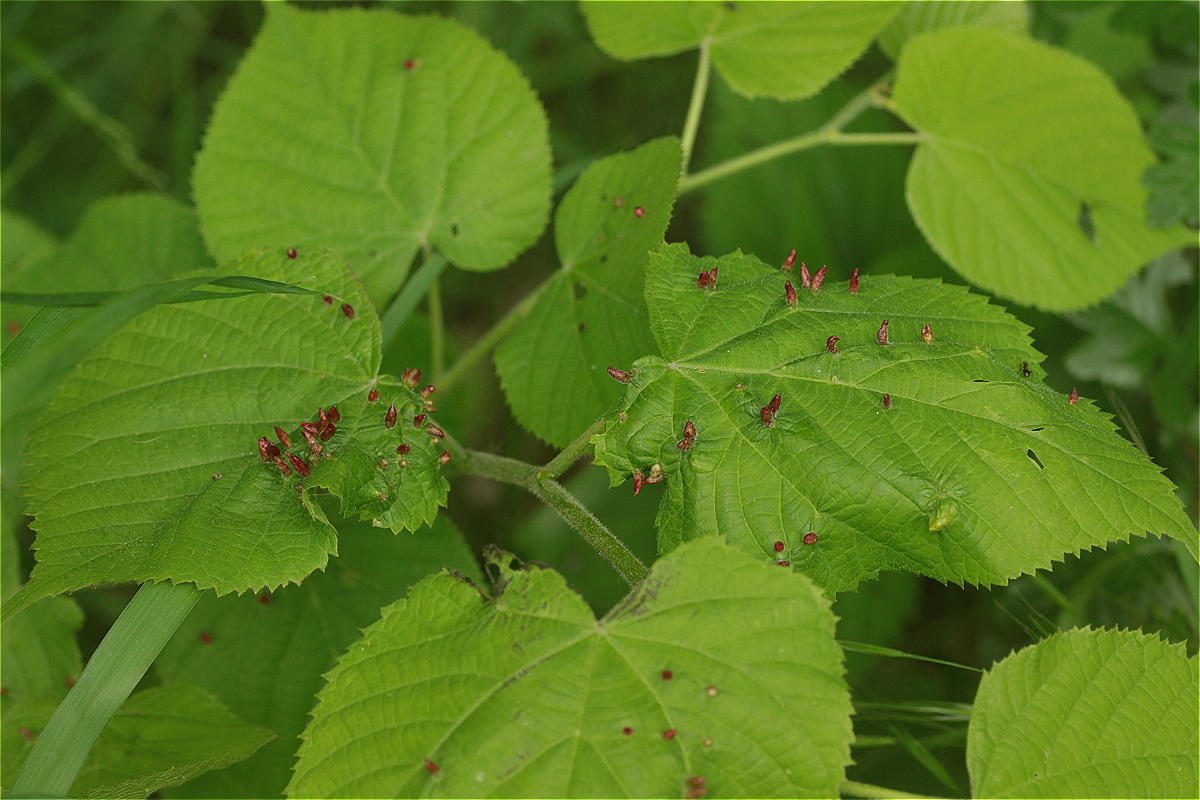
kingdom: Animalia
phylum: Arthropoda
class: Arachnida
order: Trombidiformes
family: Eriophyidae
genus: Eriophyes
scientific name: Eriophyes tiliae
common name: Red nail gall mite
